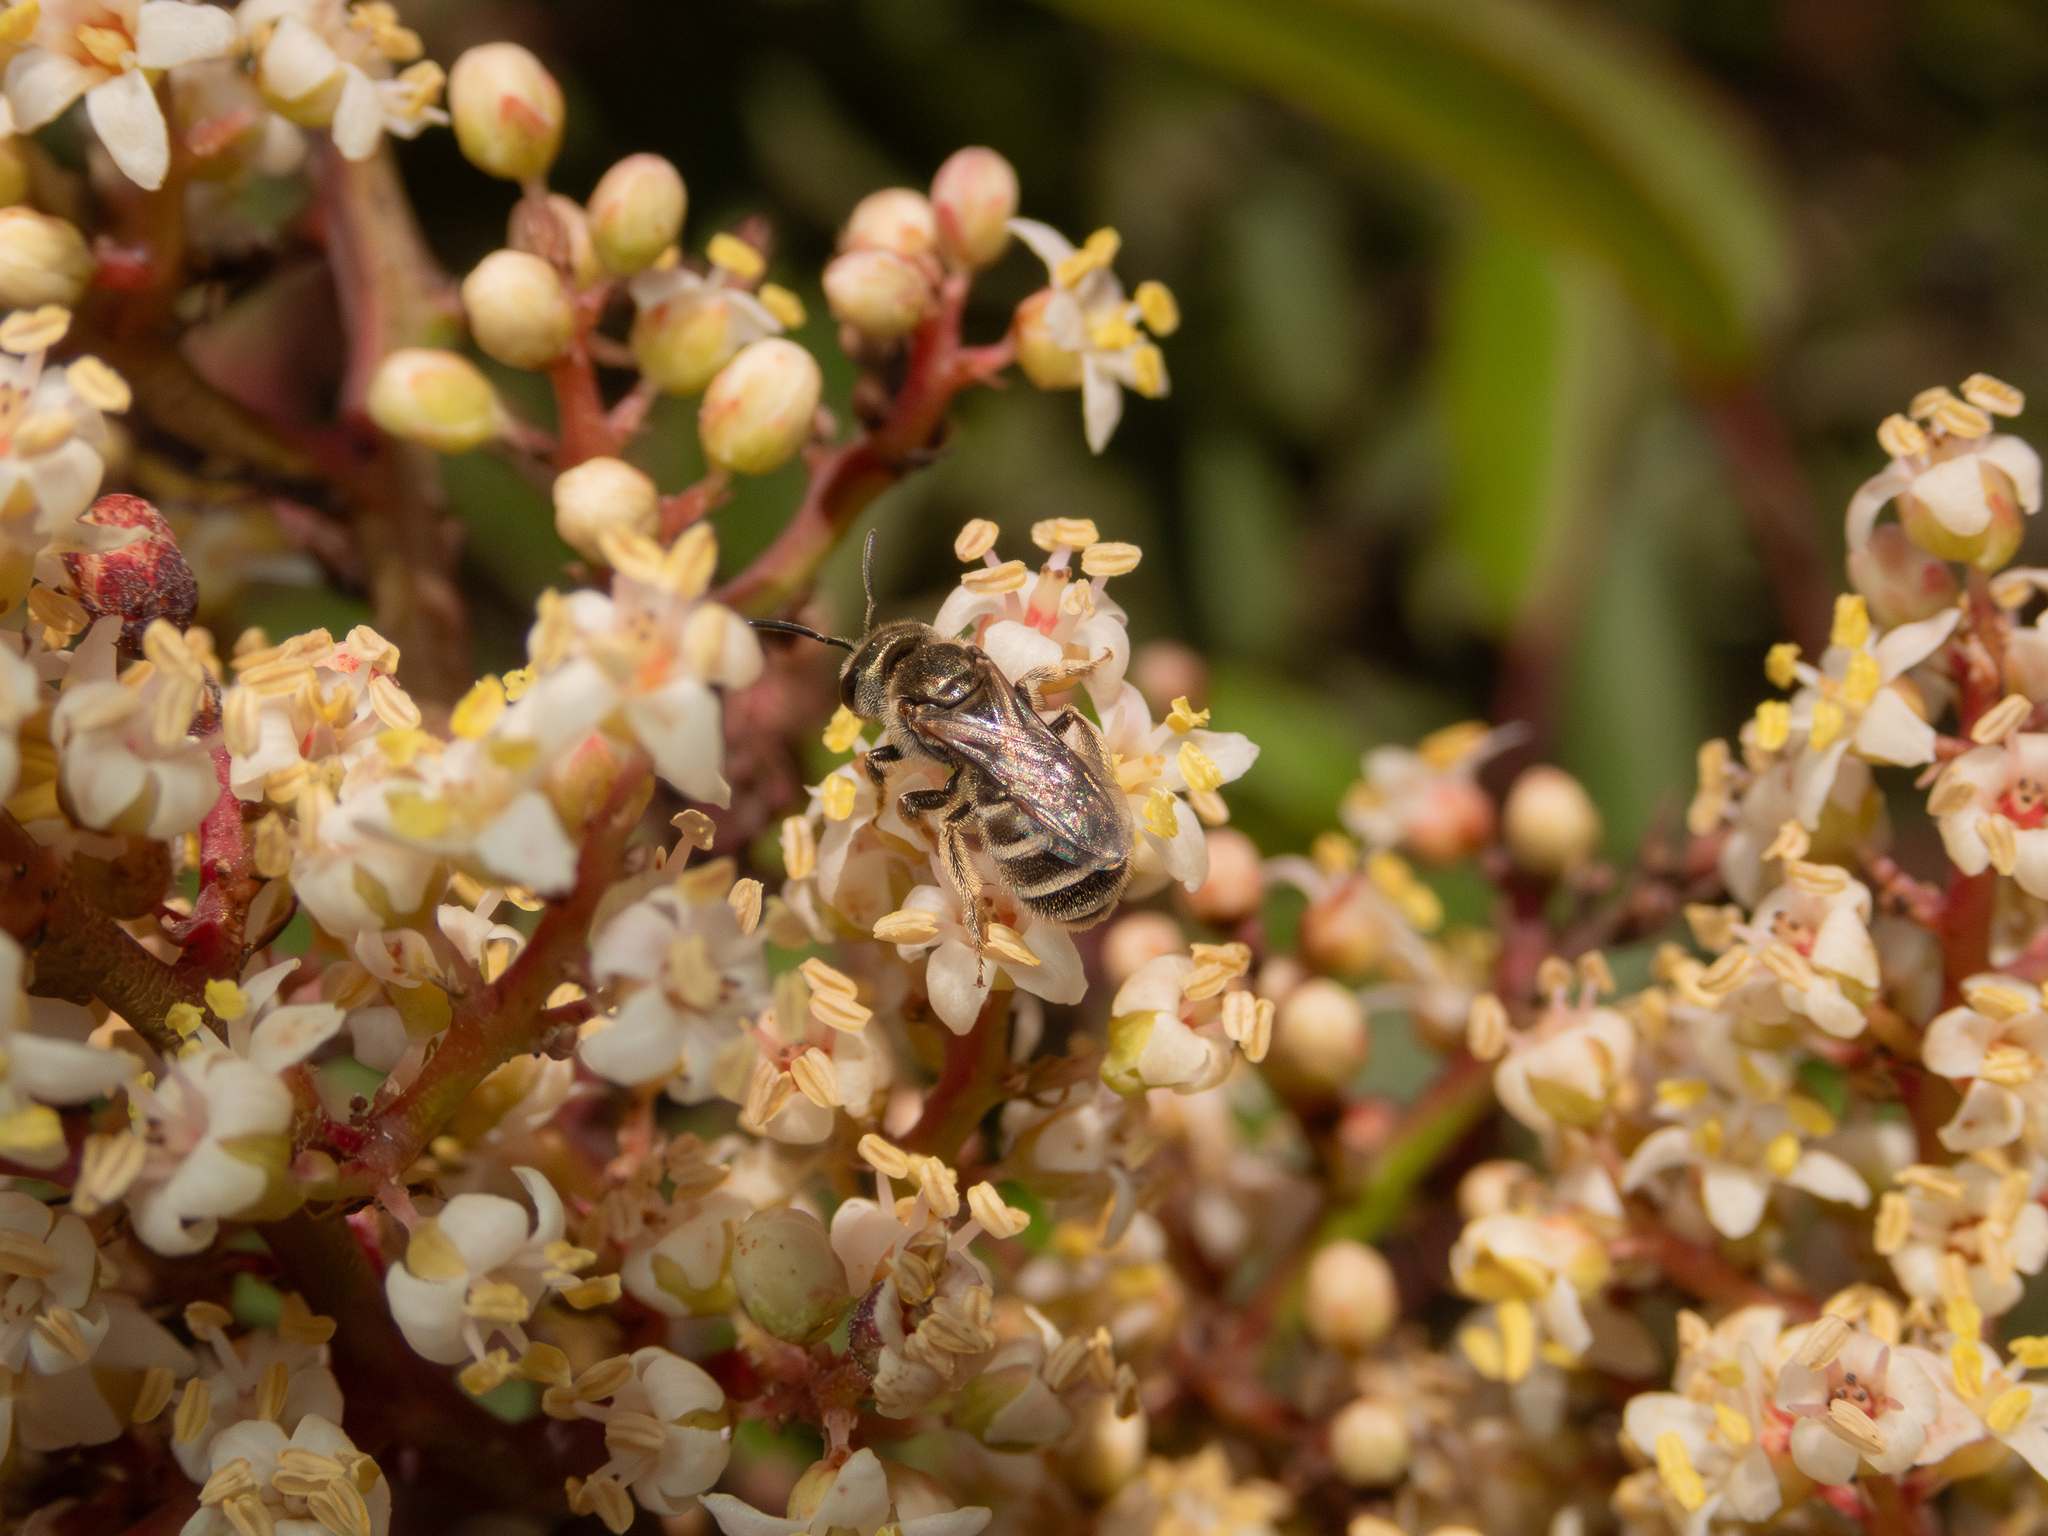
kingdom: Animalia
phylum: Arthropoda
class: Insecta
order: Hymenoptera
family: Halictidae
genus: Halictus
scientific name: Halictus tripartitus
